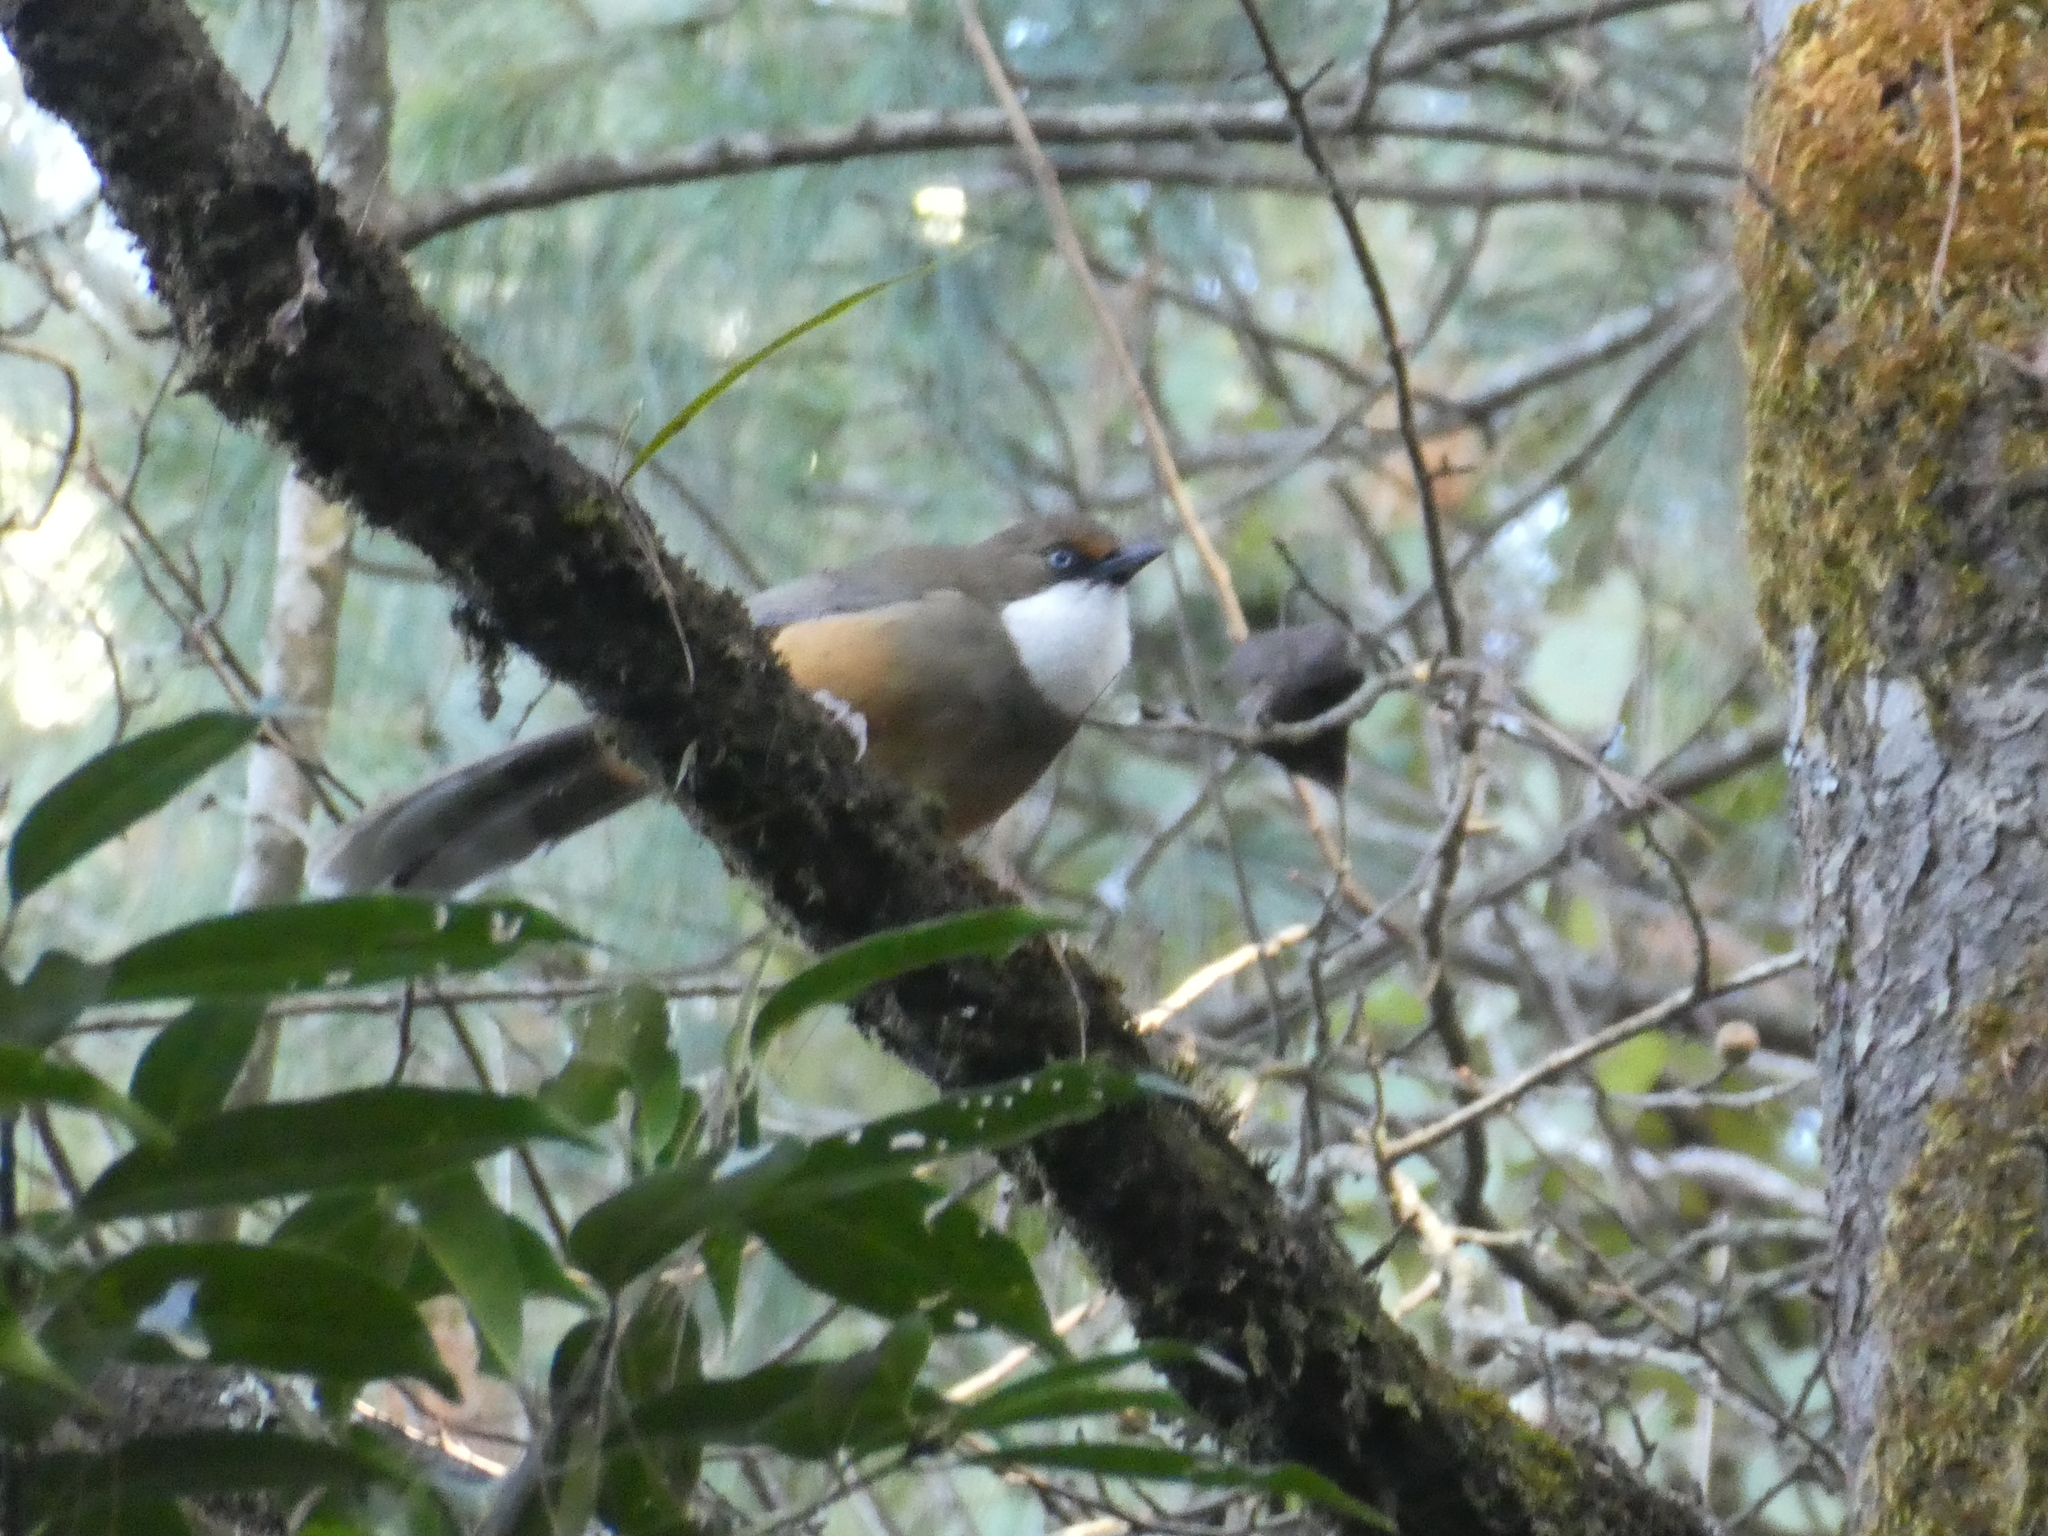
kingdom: Animalia
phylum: Chordata
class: Aves
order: Passeriformes
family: Leiothrichidae
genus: Garrulax
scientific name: Garrulax albogularis
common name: White-throated laughingthrush
